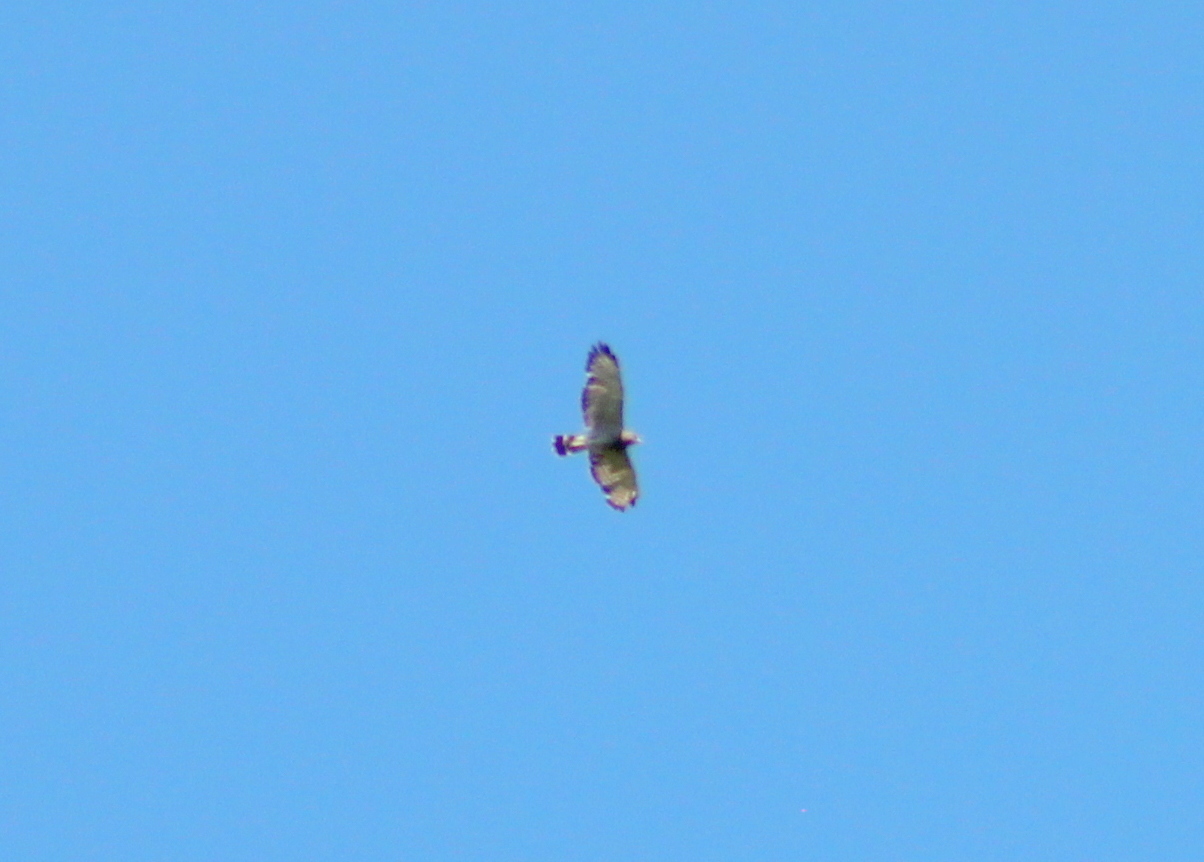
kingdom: Animalia
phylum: Chordata
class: Aves
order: Accipitriformes
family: Accipitridae
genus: Buteo
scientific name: Buteo platypterus
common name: Broad-winged hawk
